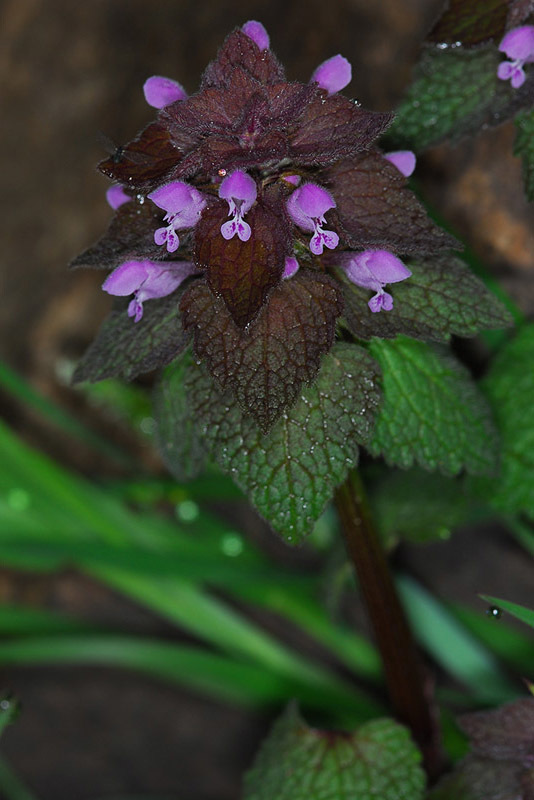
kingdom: Plantae
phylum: Tracheophyta
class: Magnoliopsida
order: Lamiales
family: Lamiaceae
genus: Lamium
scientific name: Lamium purpureum
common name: Red dead-nettle
